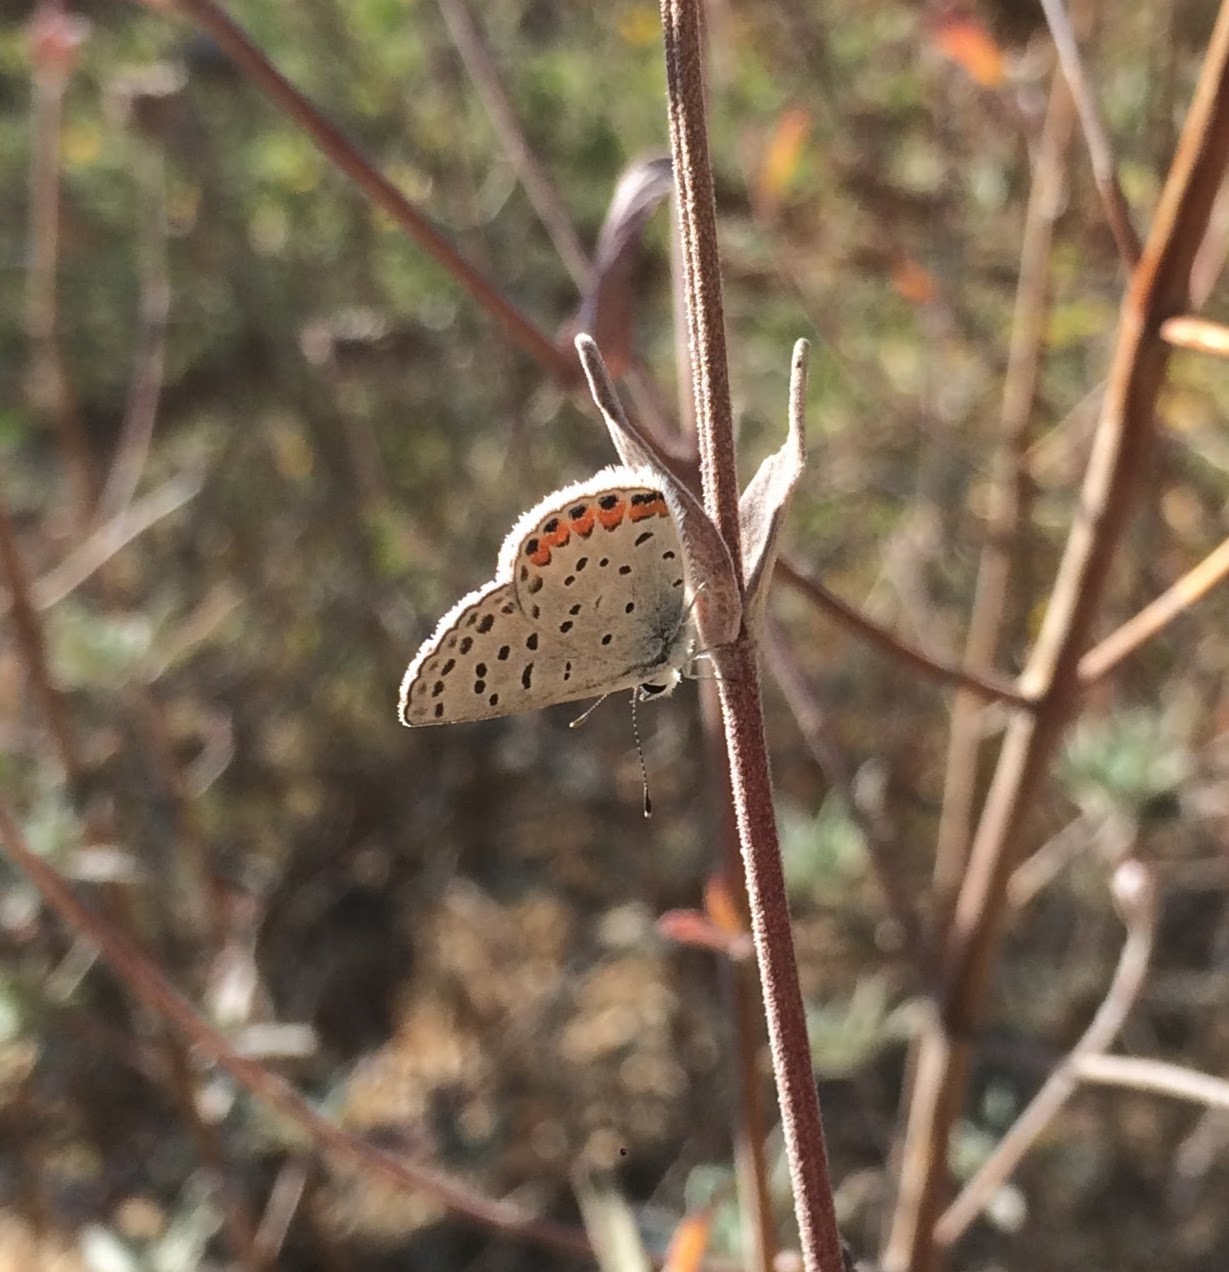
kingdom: Animalia
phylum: Arthropoda
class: Insecta
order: Lepidoptera
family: Lycaenidae
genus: Icaricia
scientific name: Icaricia acmon
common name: Acmon blue
